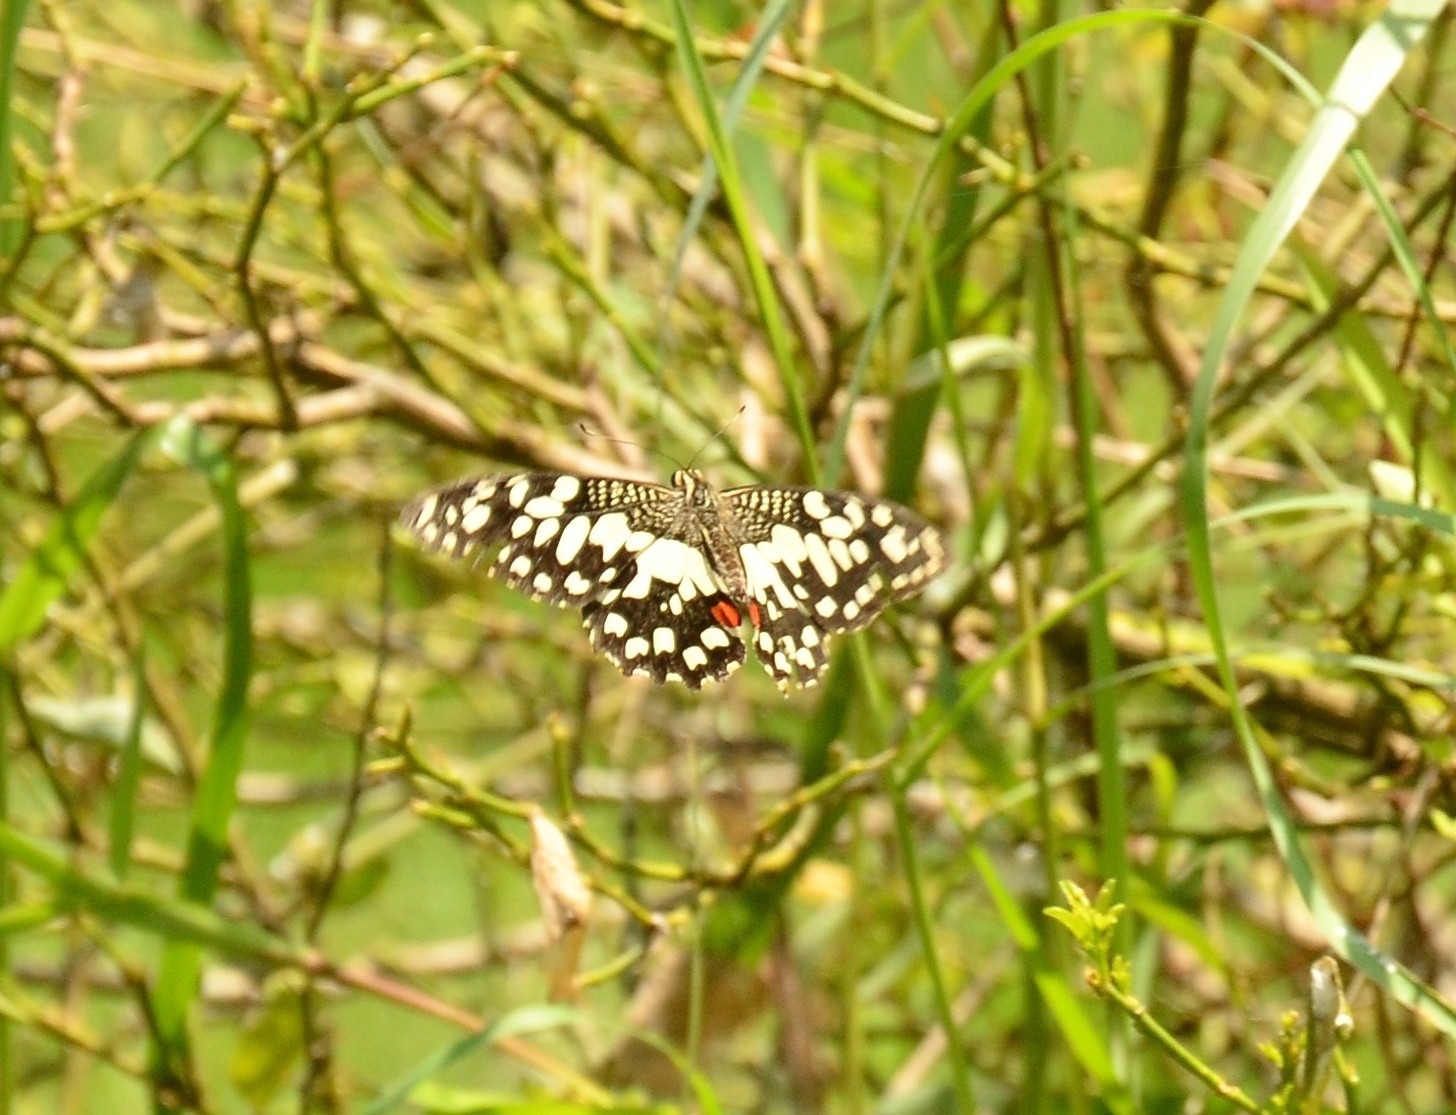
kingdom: Animalia
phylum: Arthropoda
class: Insecta
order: Lepidoptera
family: Papilionidae
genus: Papilio
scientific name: Papilio demoleus
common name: Lime butterfly
